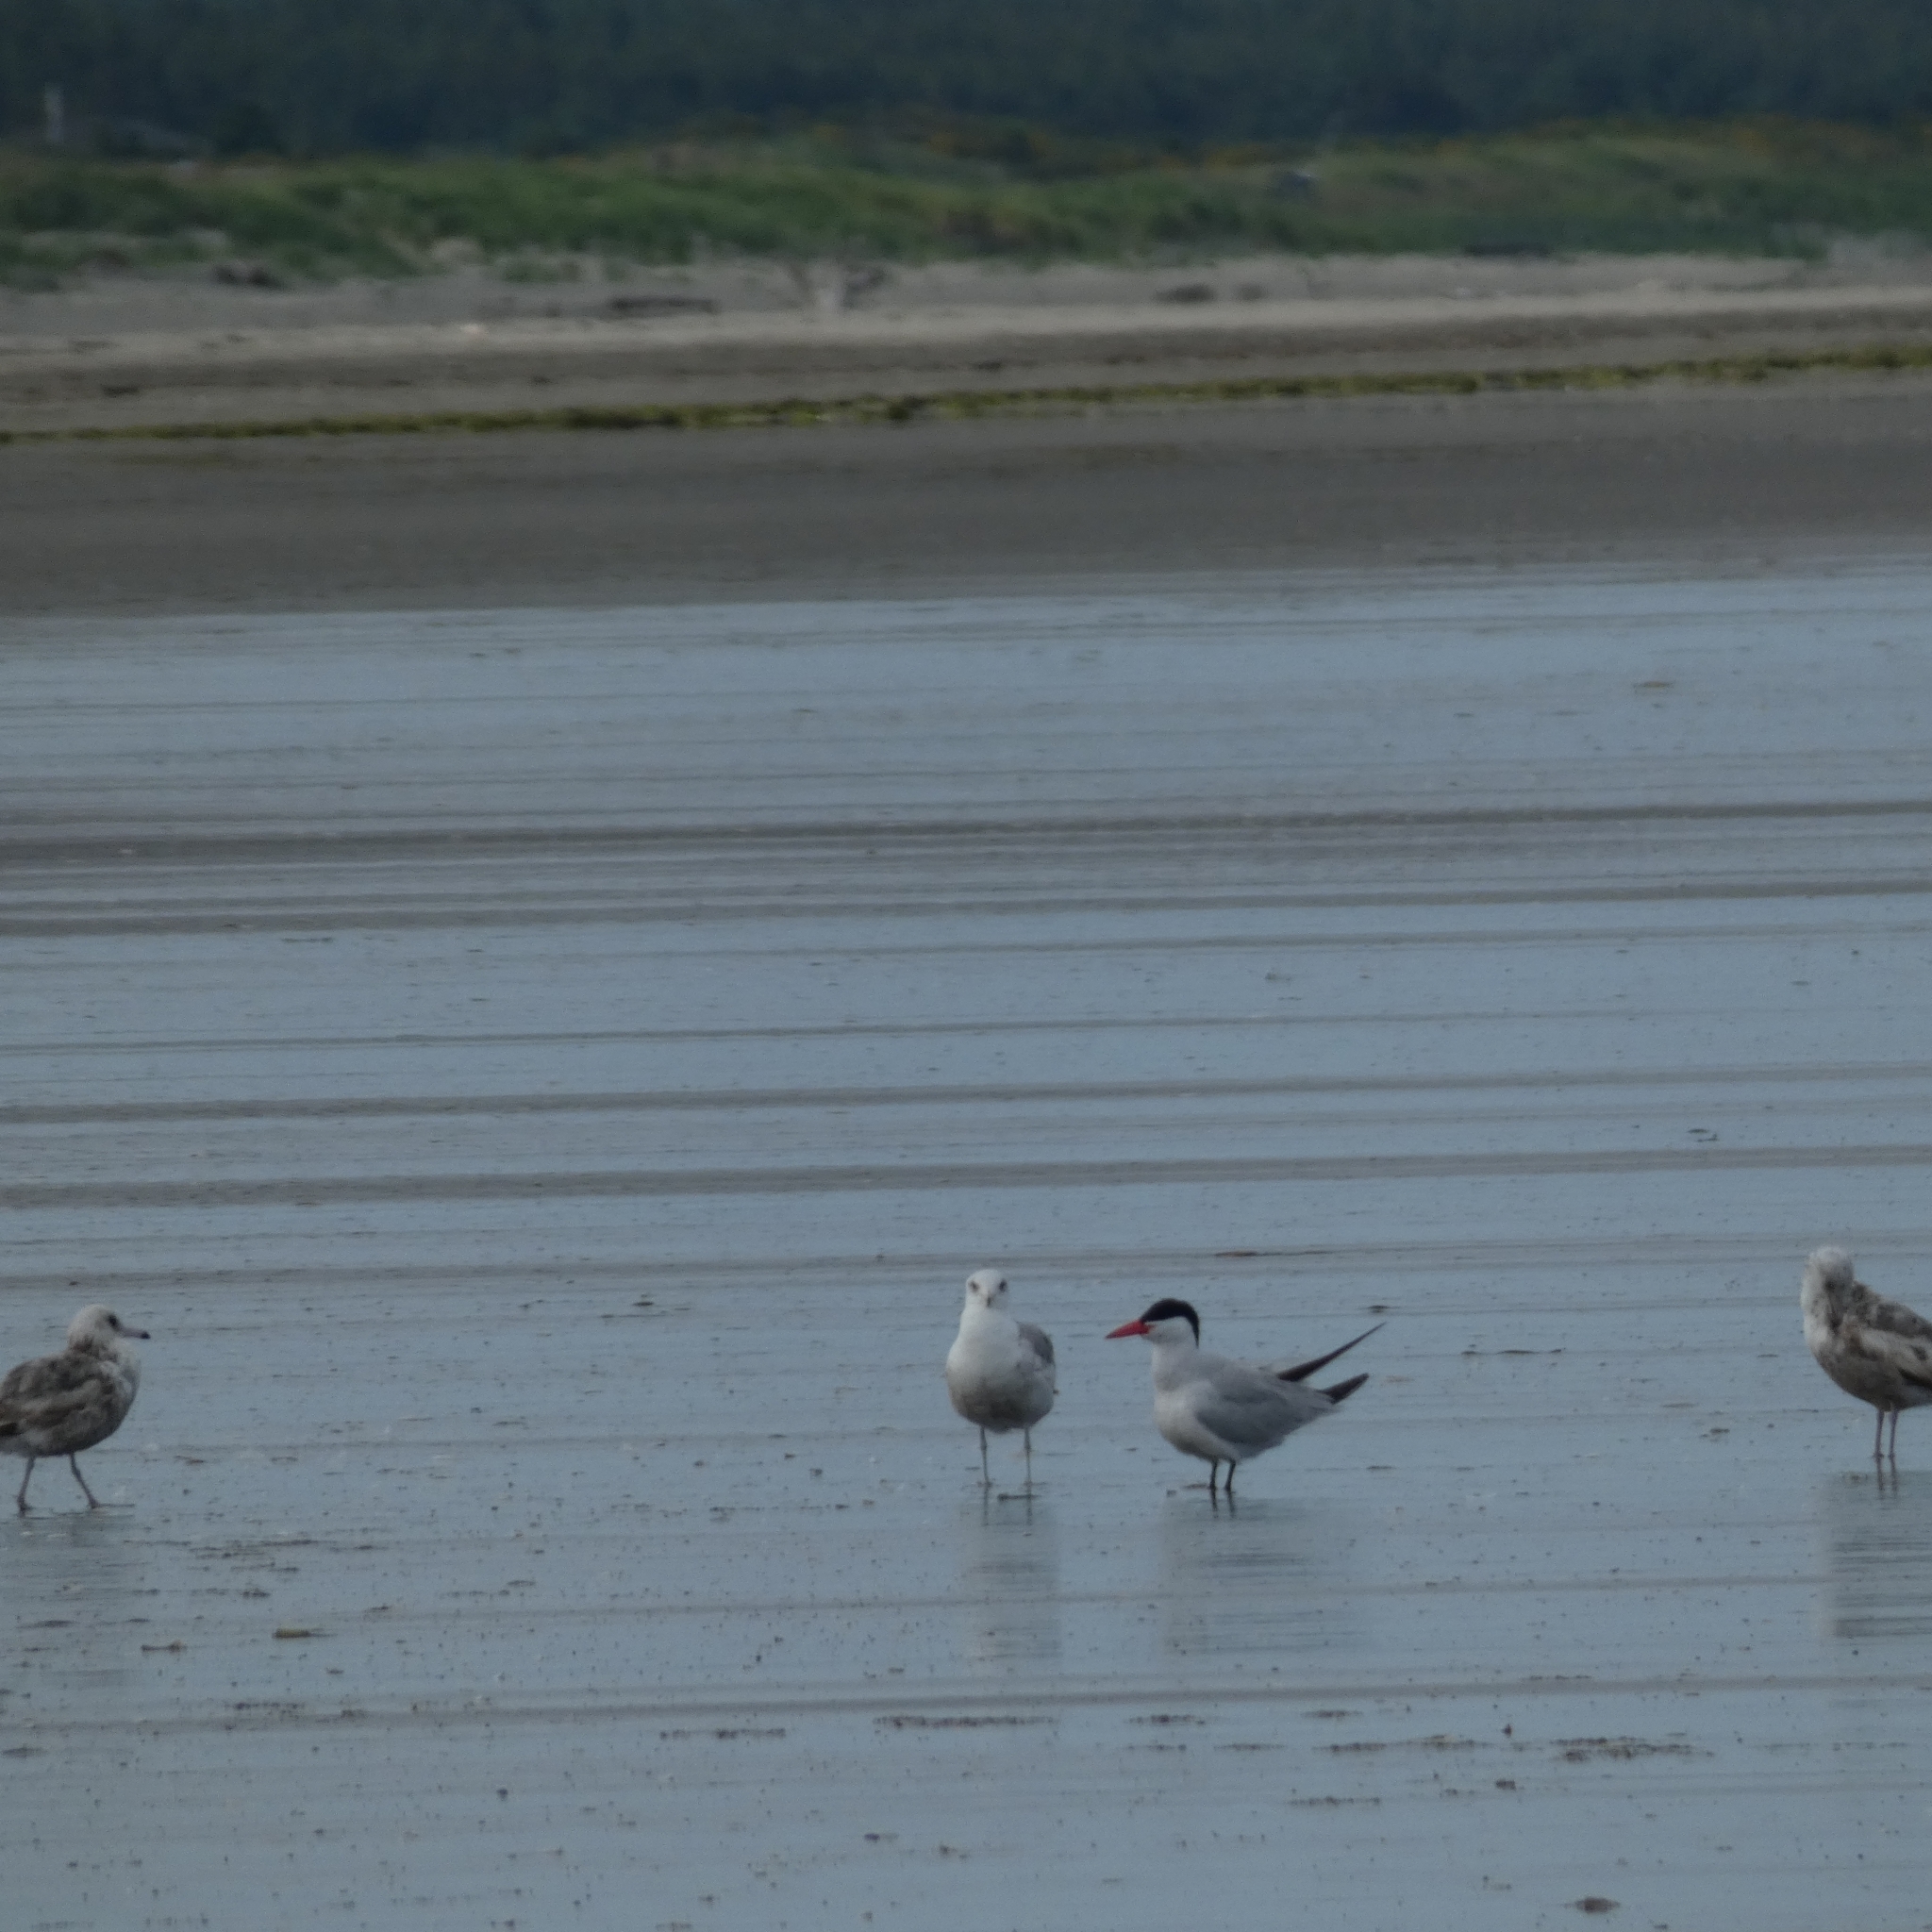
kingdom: Animalia
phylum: Chordata
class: Aves
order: Charadriiformes
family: Laridae
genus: Hydroprogne
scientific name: Hydroprogne caspia
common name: Caspian tern
